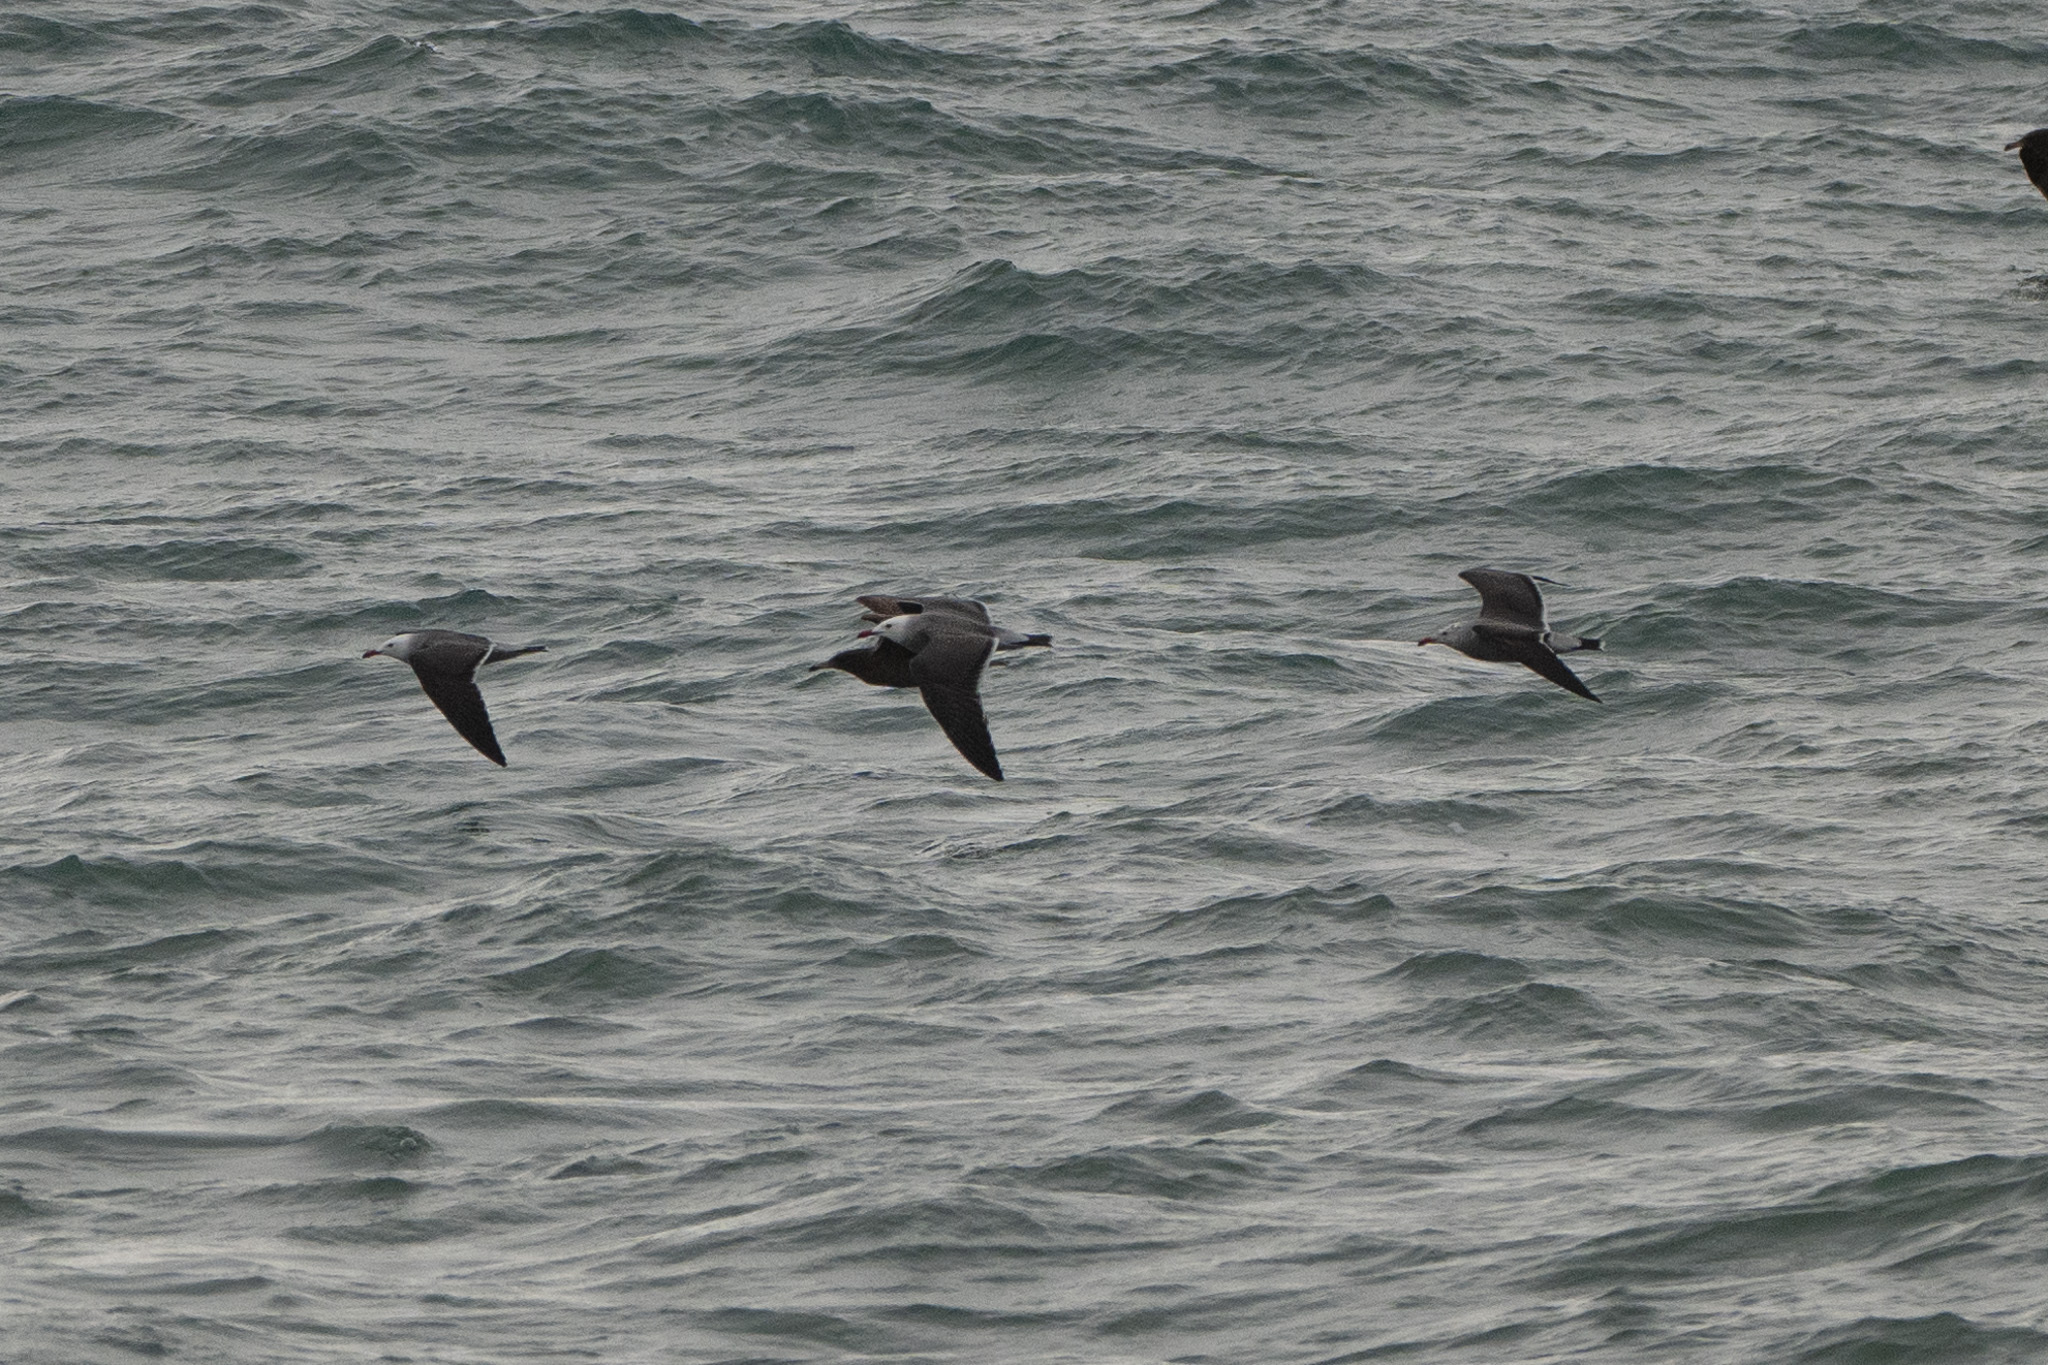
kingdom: Animalia
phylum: Chordata
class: Aves
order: Charadriiformes
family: Laridae
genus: Larus
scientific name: Larus heermanni
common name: Heermann's gull
